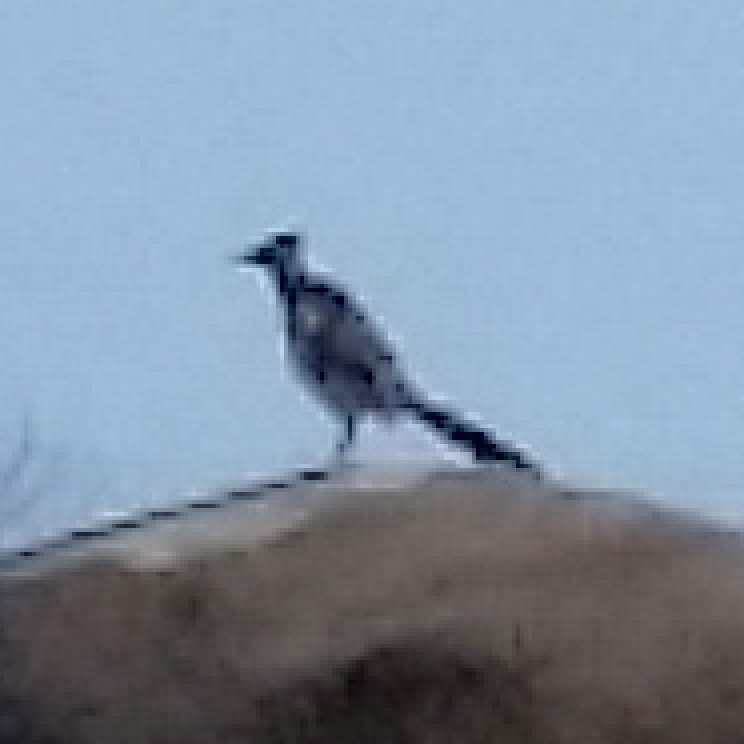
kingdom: Animalia
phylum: Chordata
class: Aves
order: Cuculiformes
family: Cuculidae
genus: Geococcyx
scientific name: Geococcyx californianus
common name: Greater roadrunner
